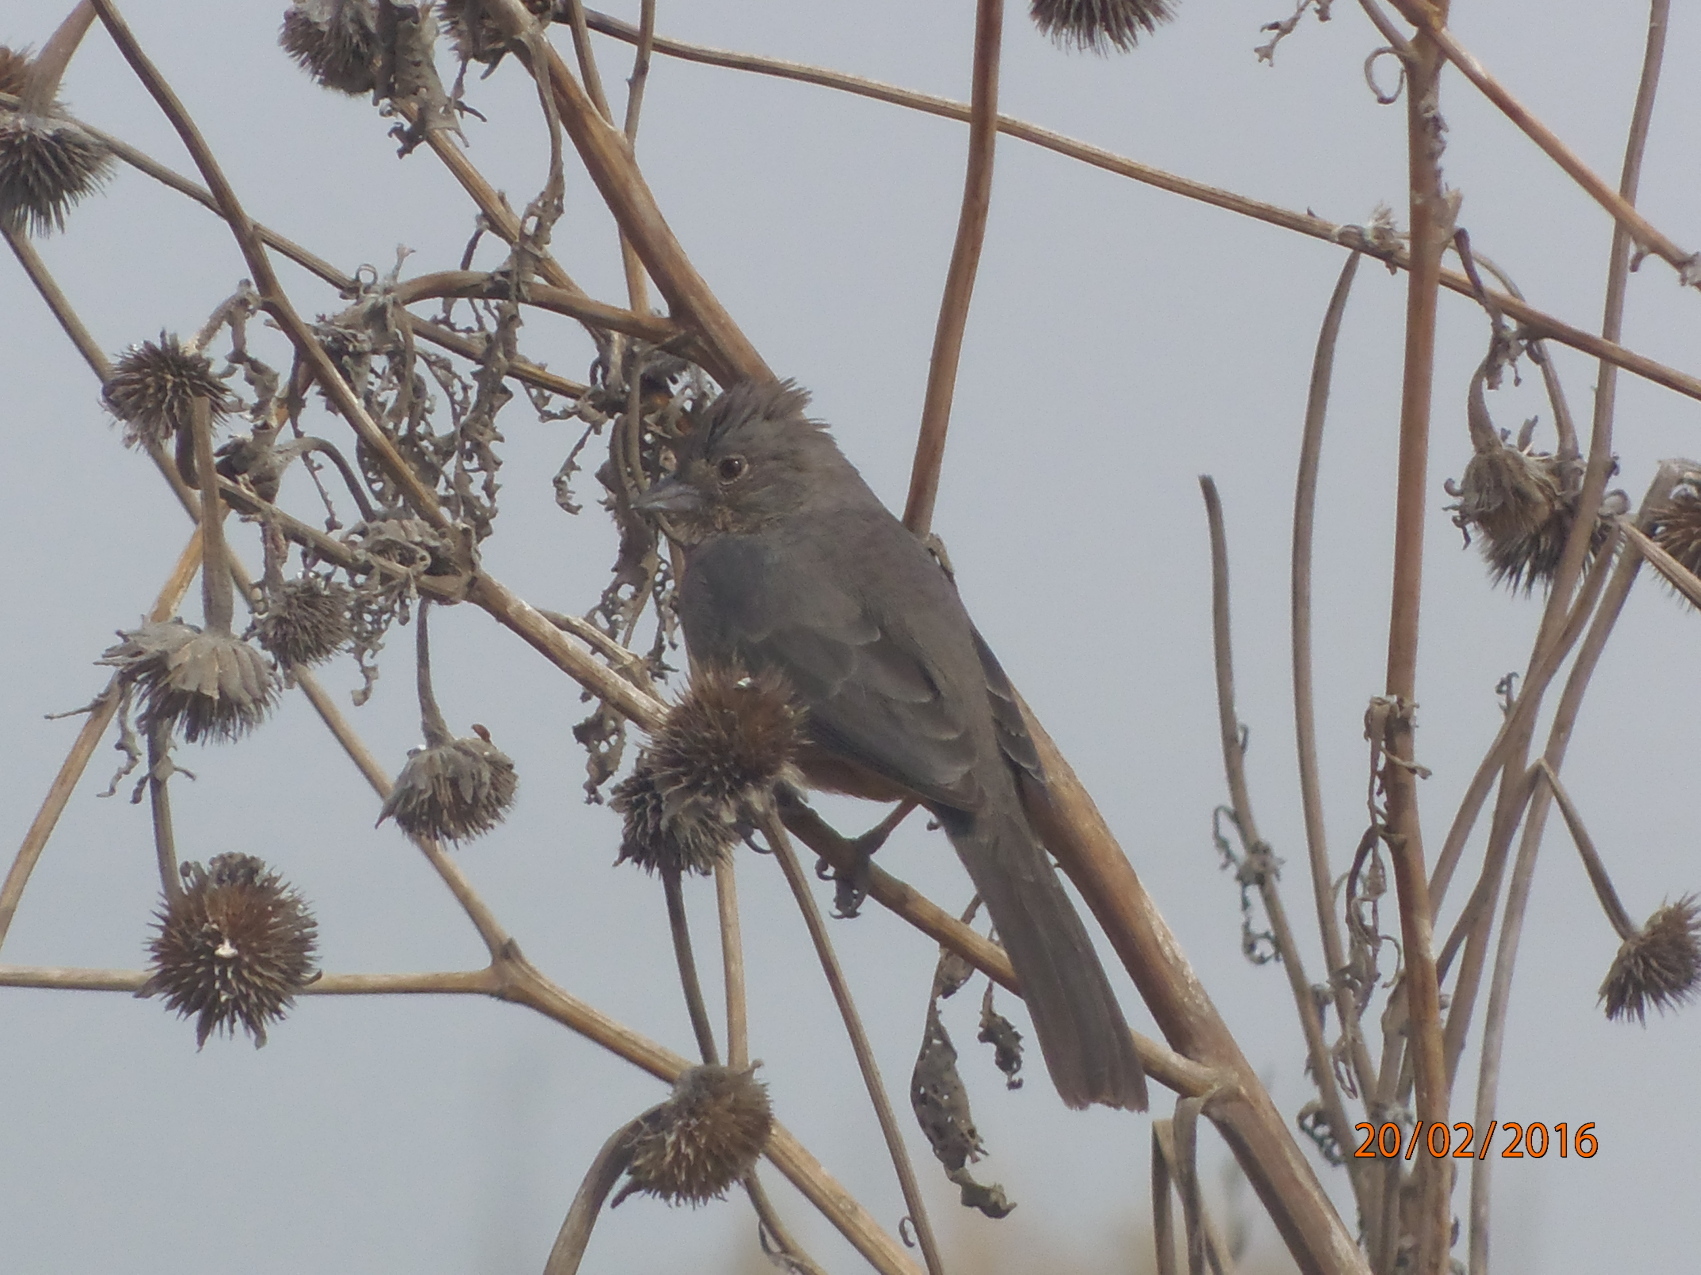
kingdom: Animalia
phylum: Chordata
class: Aves
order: Passeriformes
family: Passerellidae
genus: Melozone
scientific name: Melozone fusca
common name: Canyon towhee
